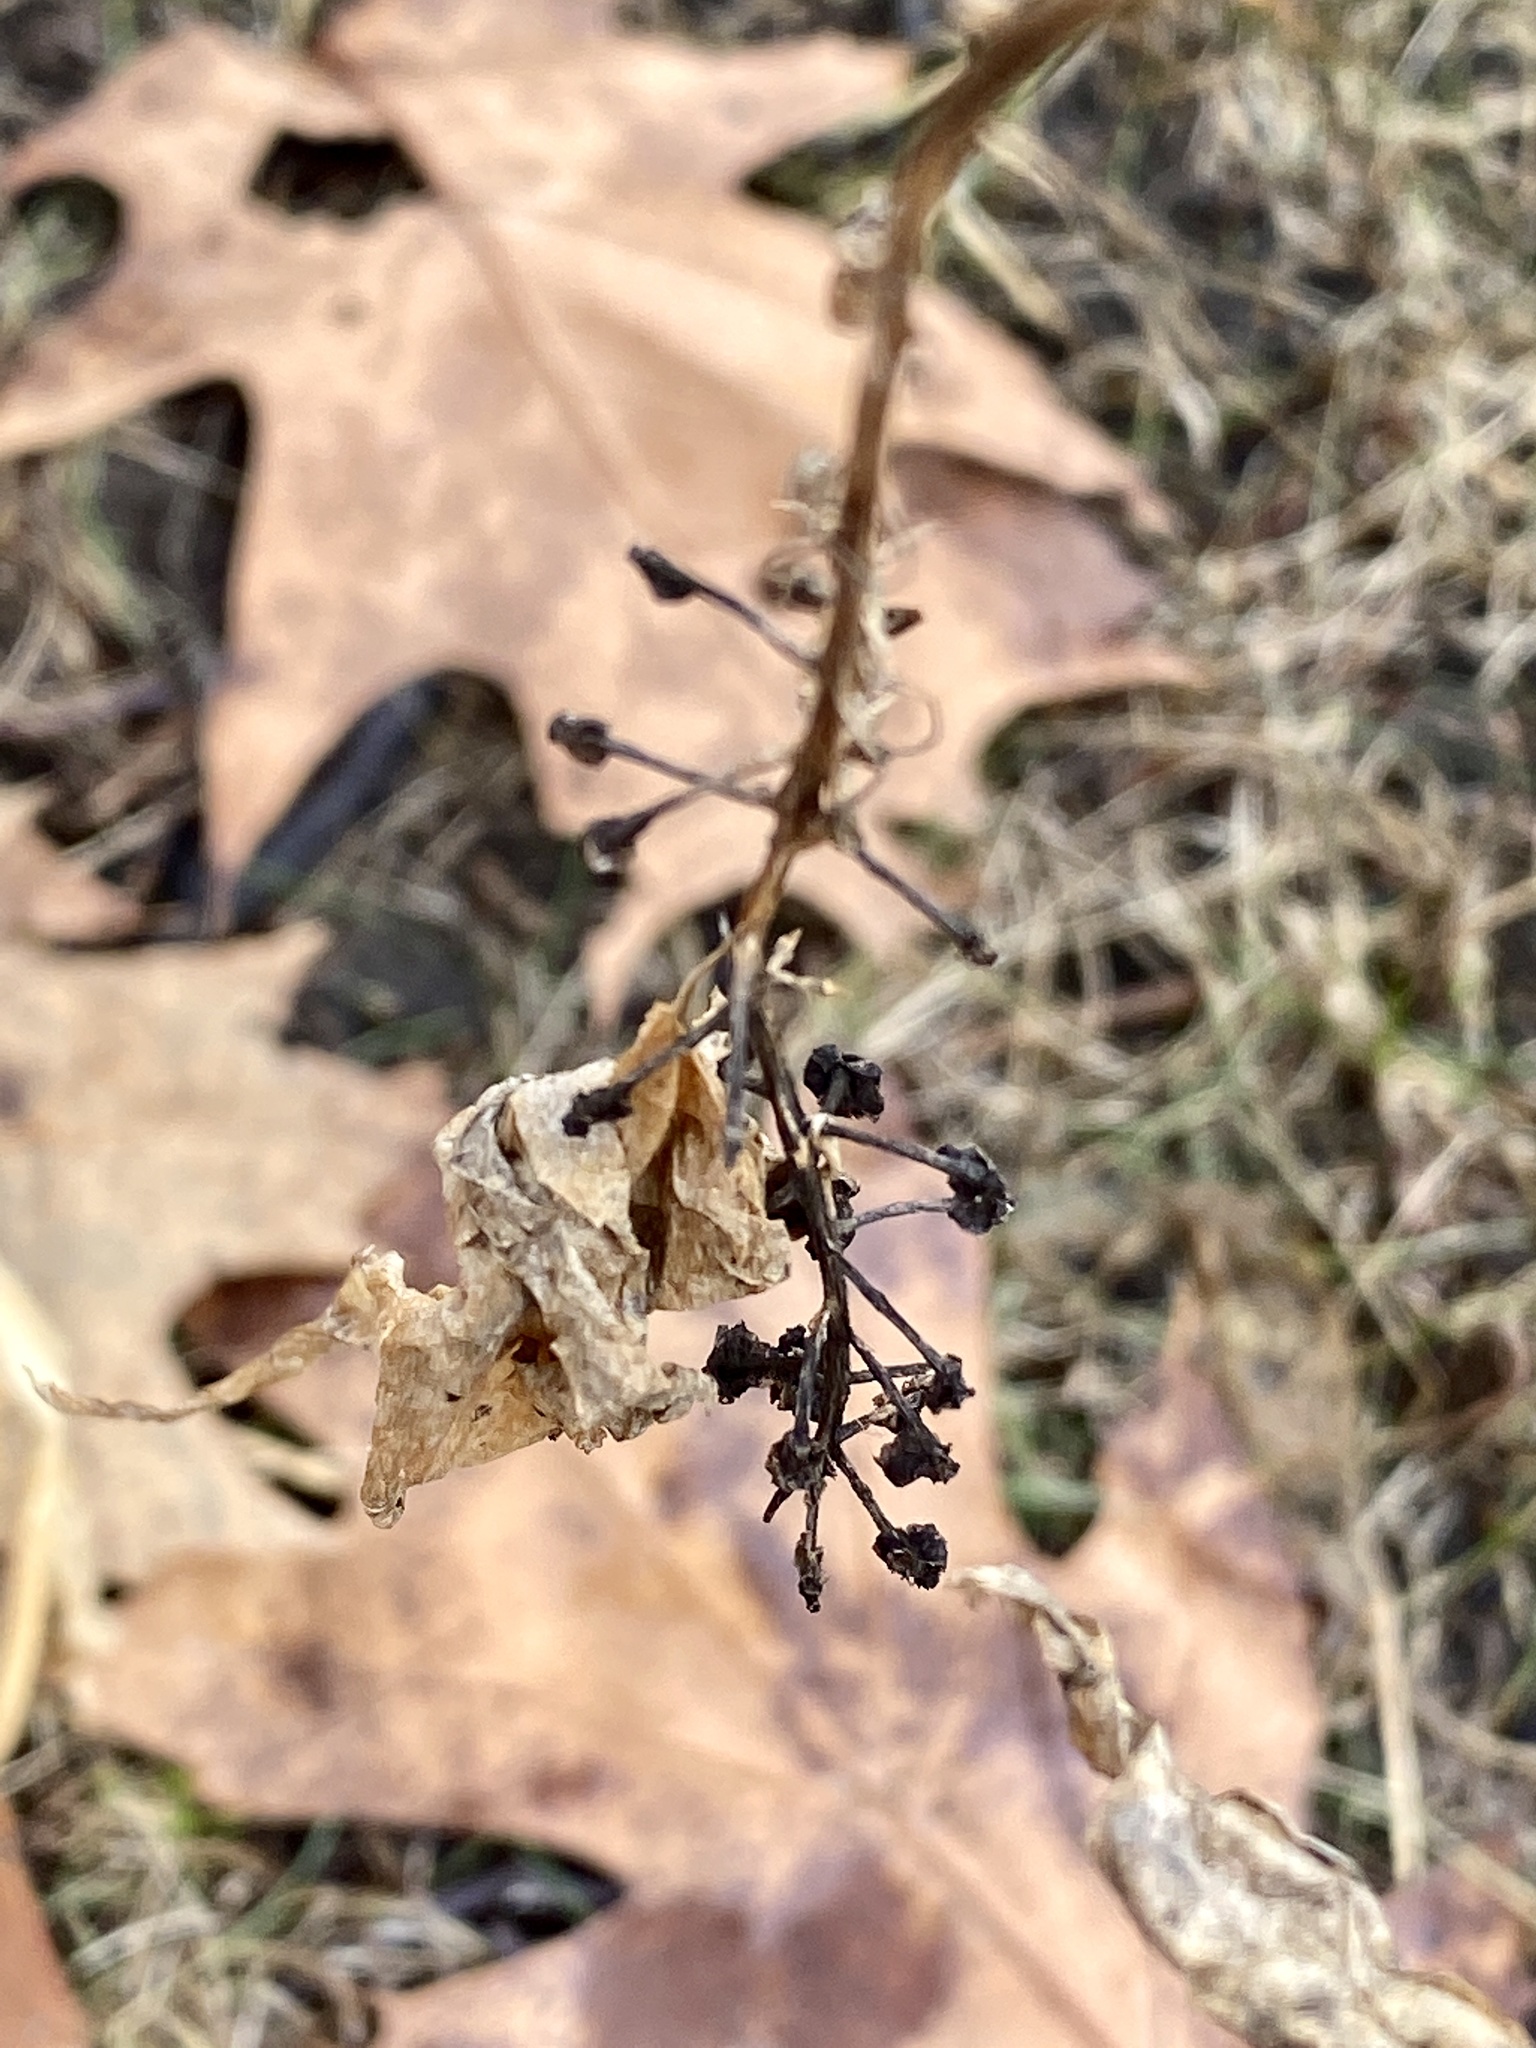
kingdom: Plantae
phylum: Tracheophyta
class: Magnoliopsida
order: Caryophyllales
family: Phytolaccaceae
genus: Phytolacca
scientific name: Phytolacca americana
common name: American pokeweed
